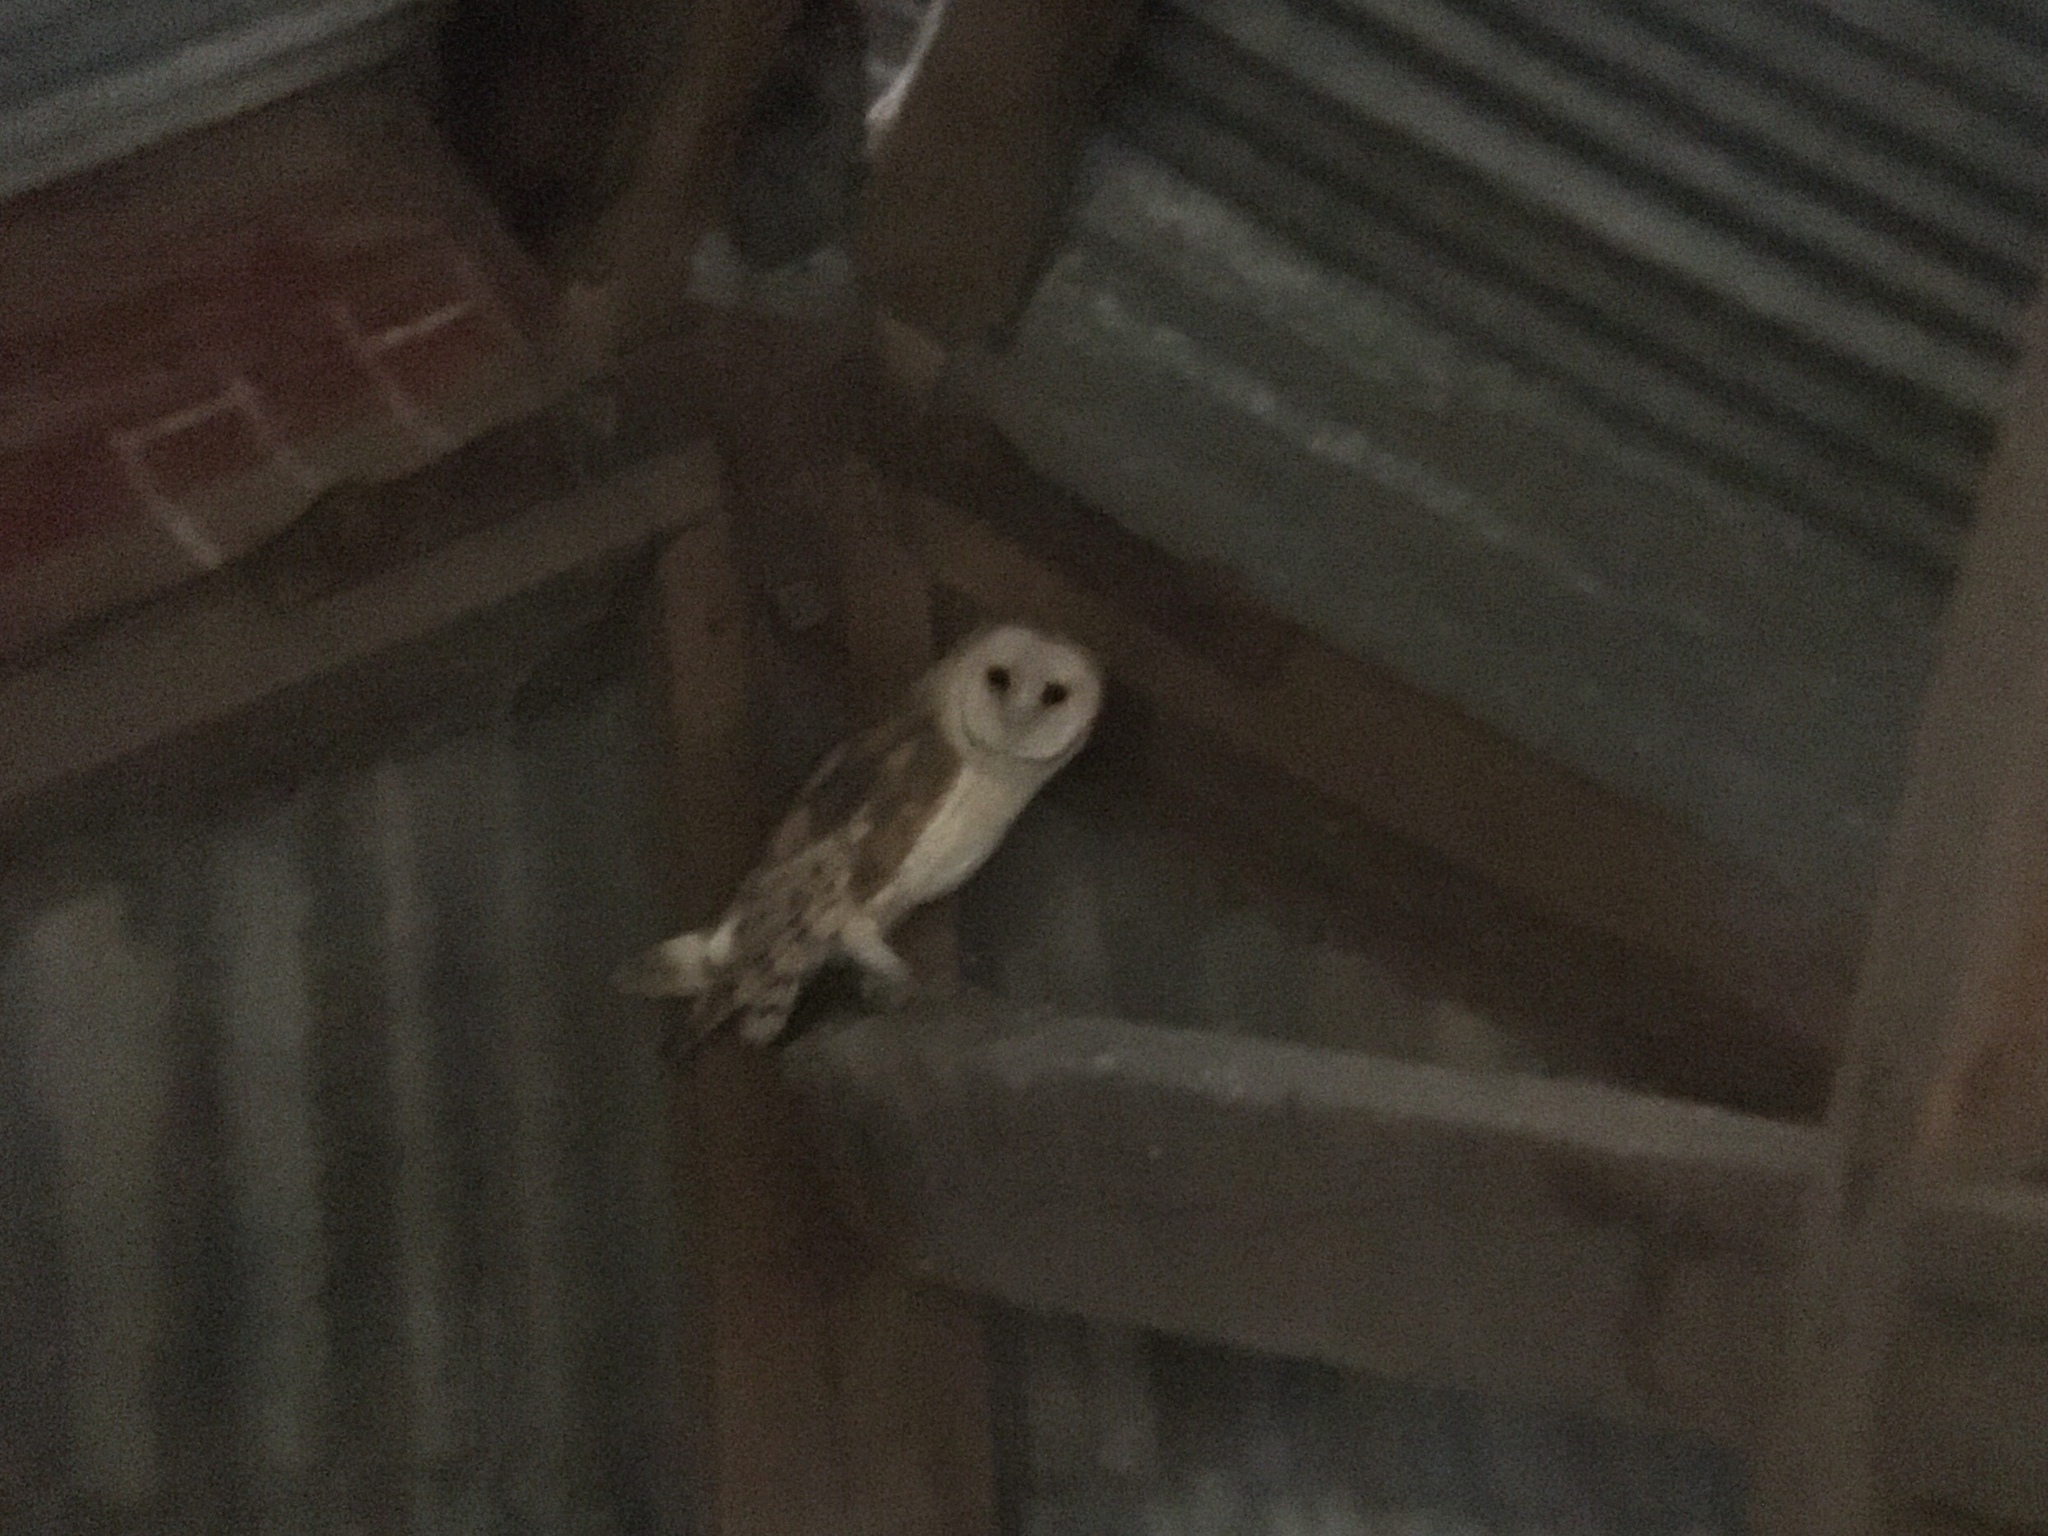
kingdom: Animalia
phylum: Chordata
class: Aves
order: Strigiformes
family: Tytonidae
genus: Tyto
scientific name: Tyto furcata
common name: American barn owl
